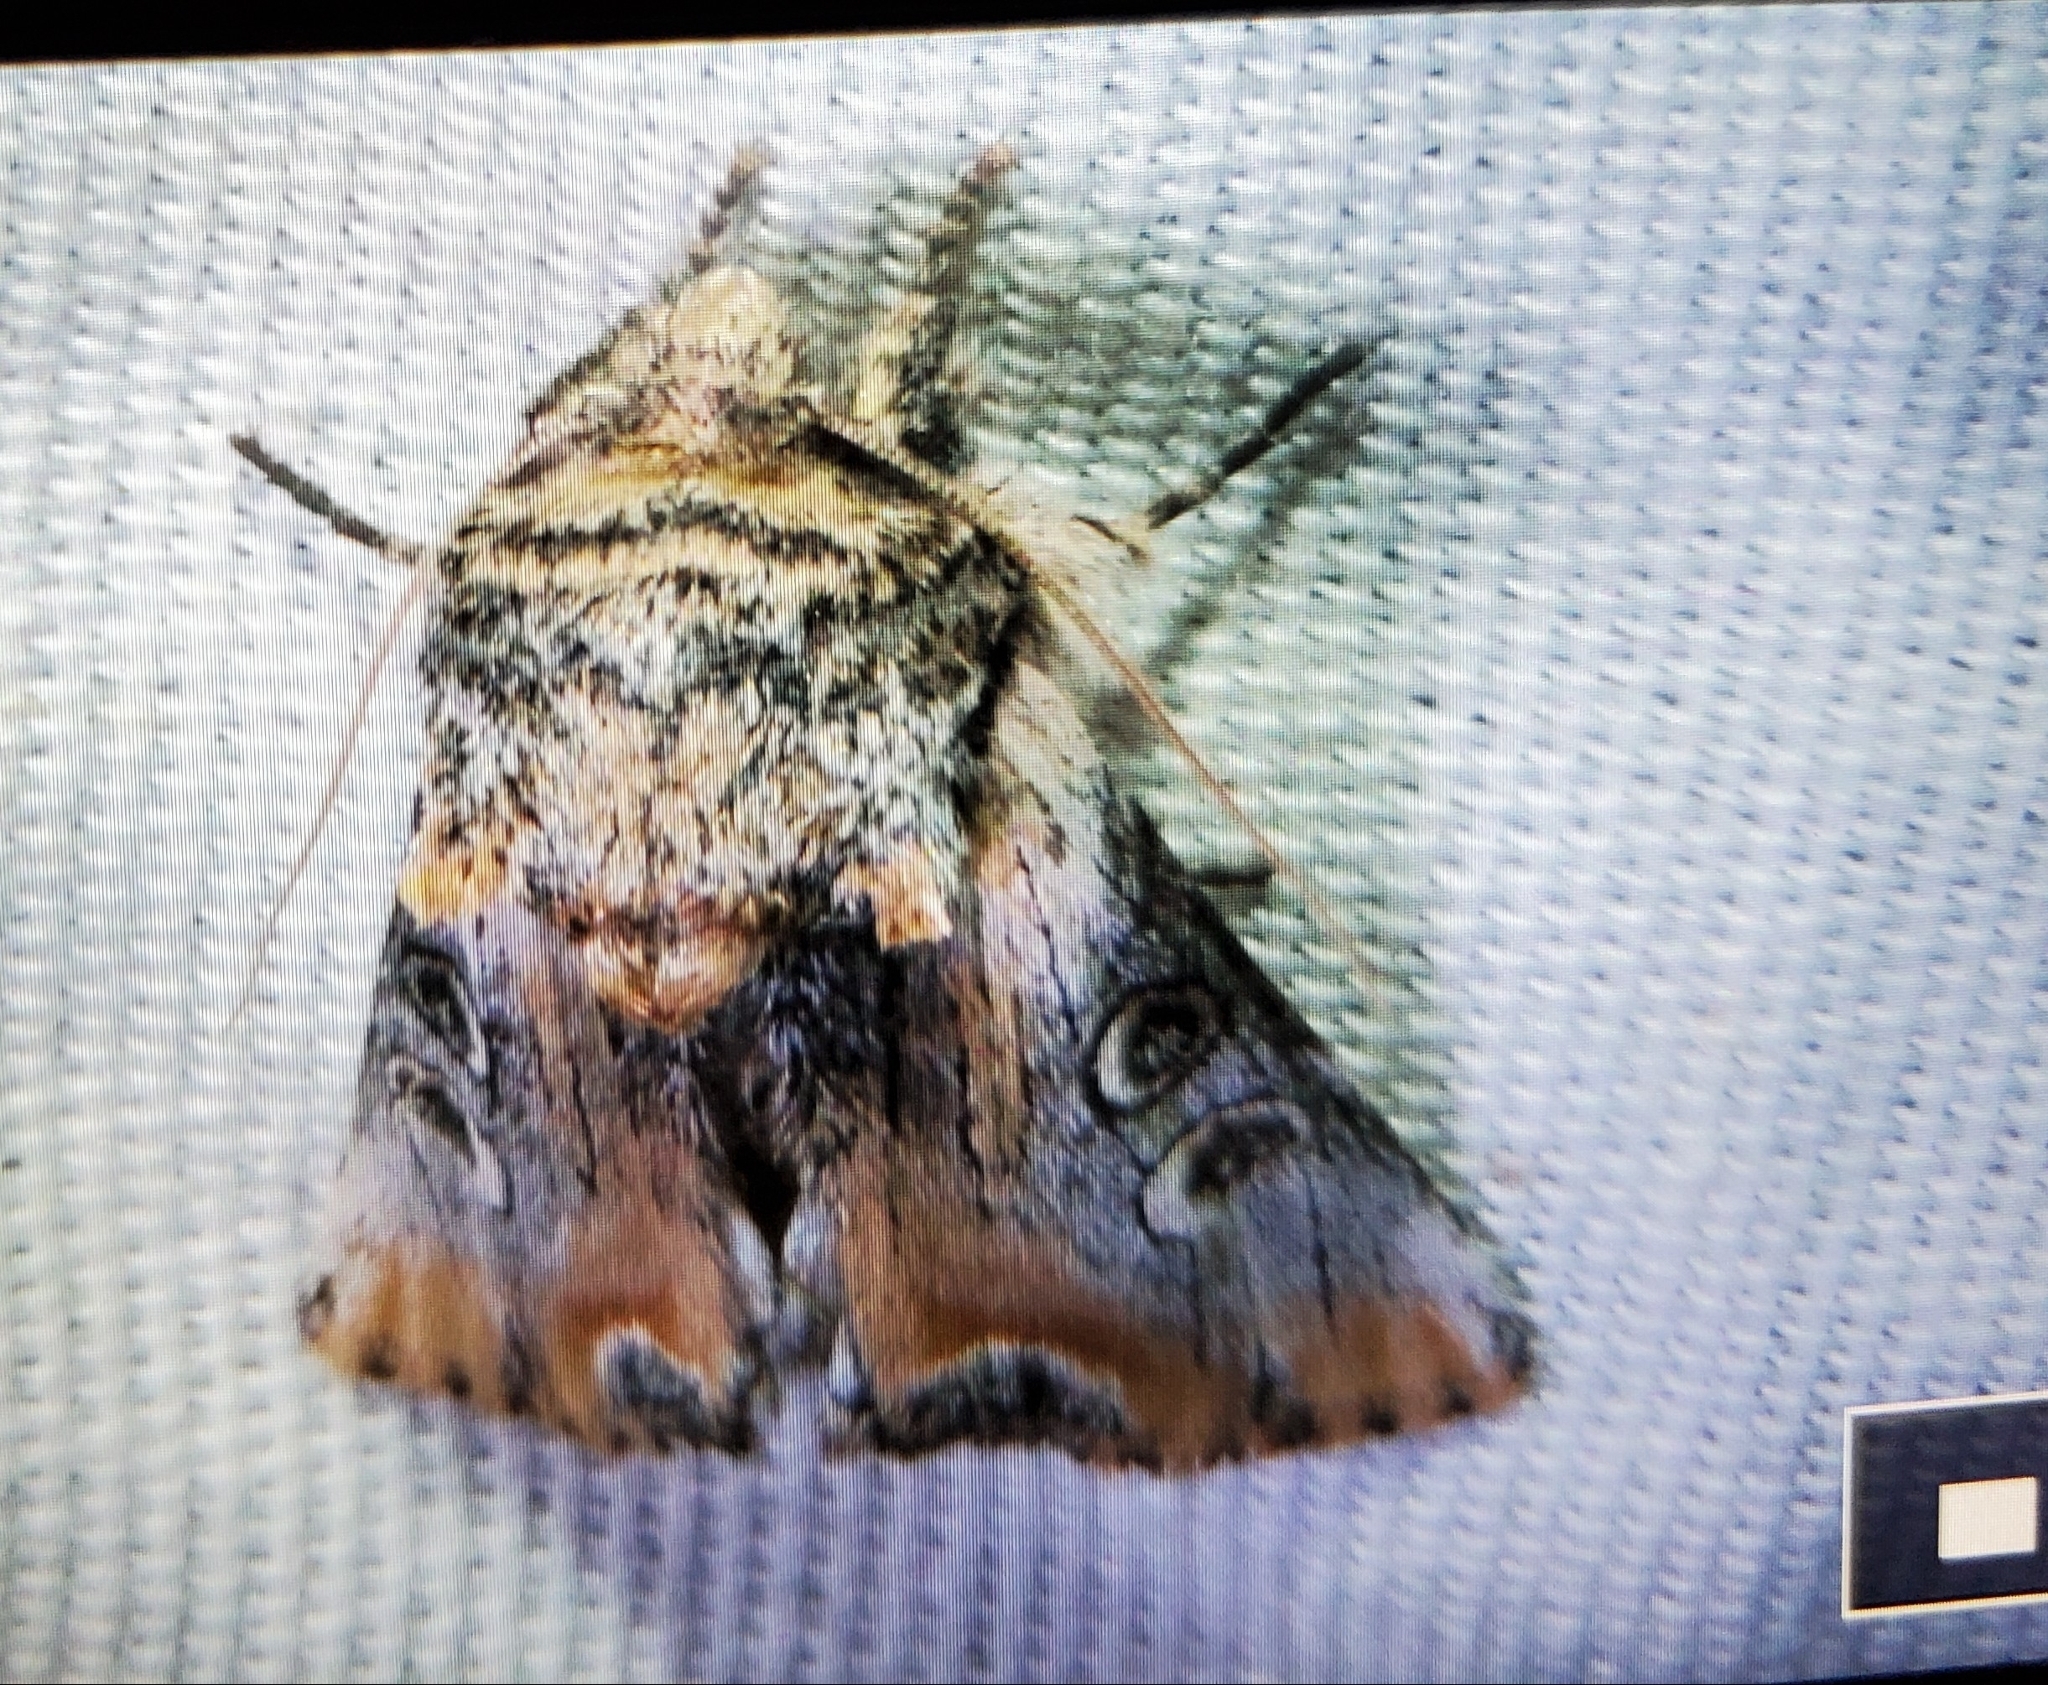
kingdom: Animalia
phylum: Arthropoda
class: Insecta
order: Lepidoptera
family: Noctuidae
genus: Walterella
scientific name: Walterella ocellata
